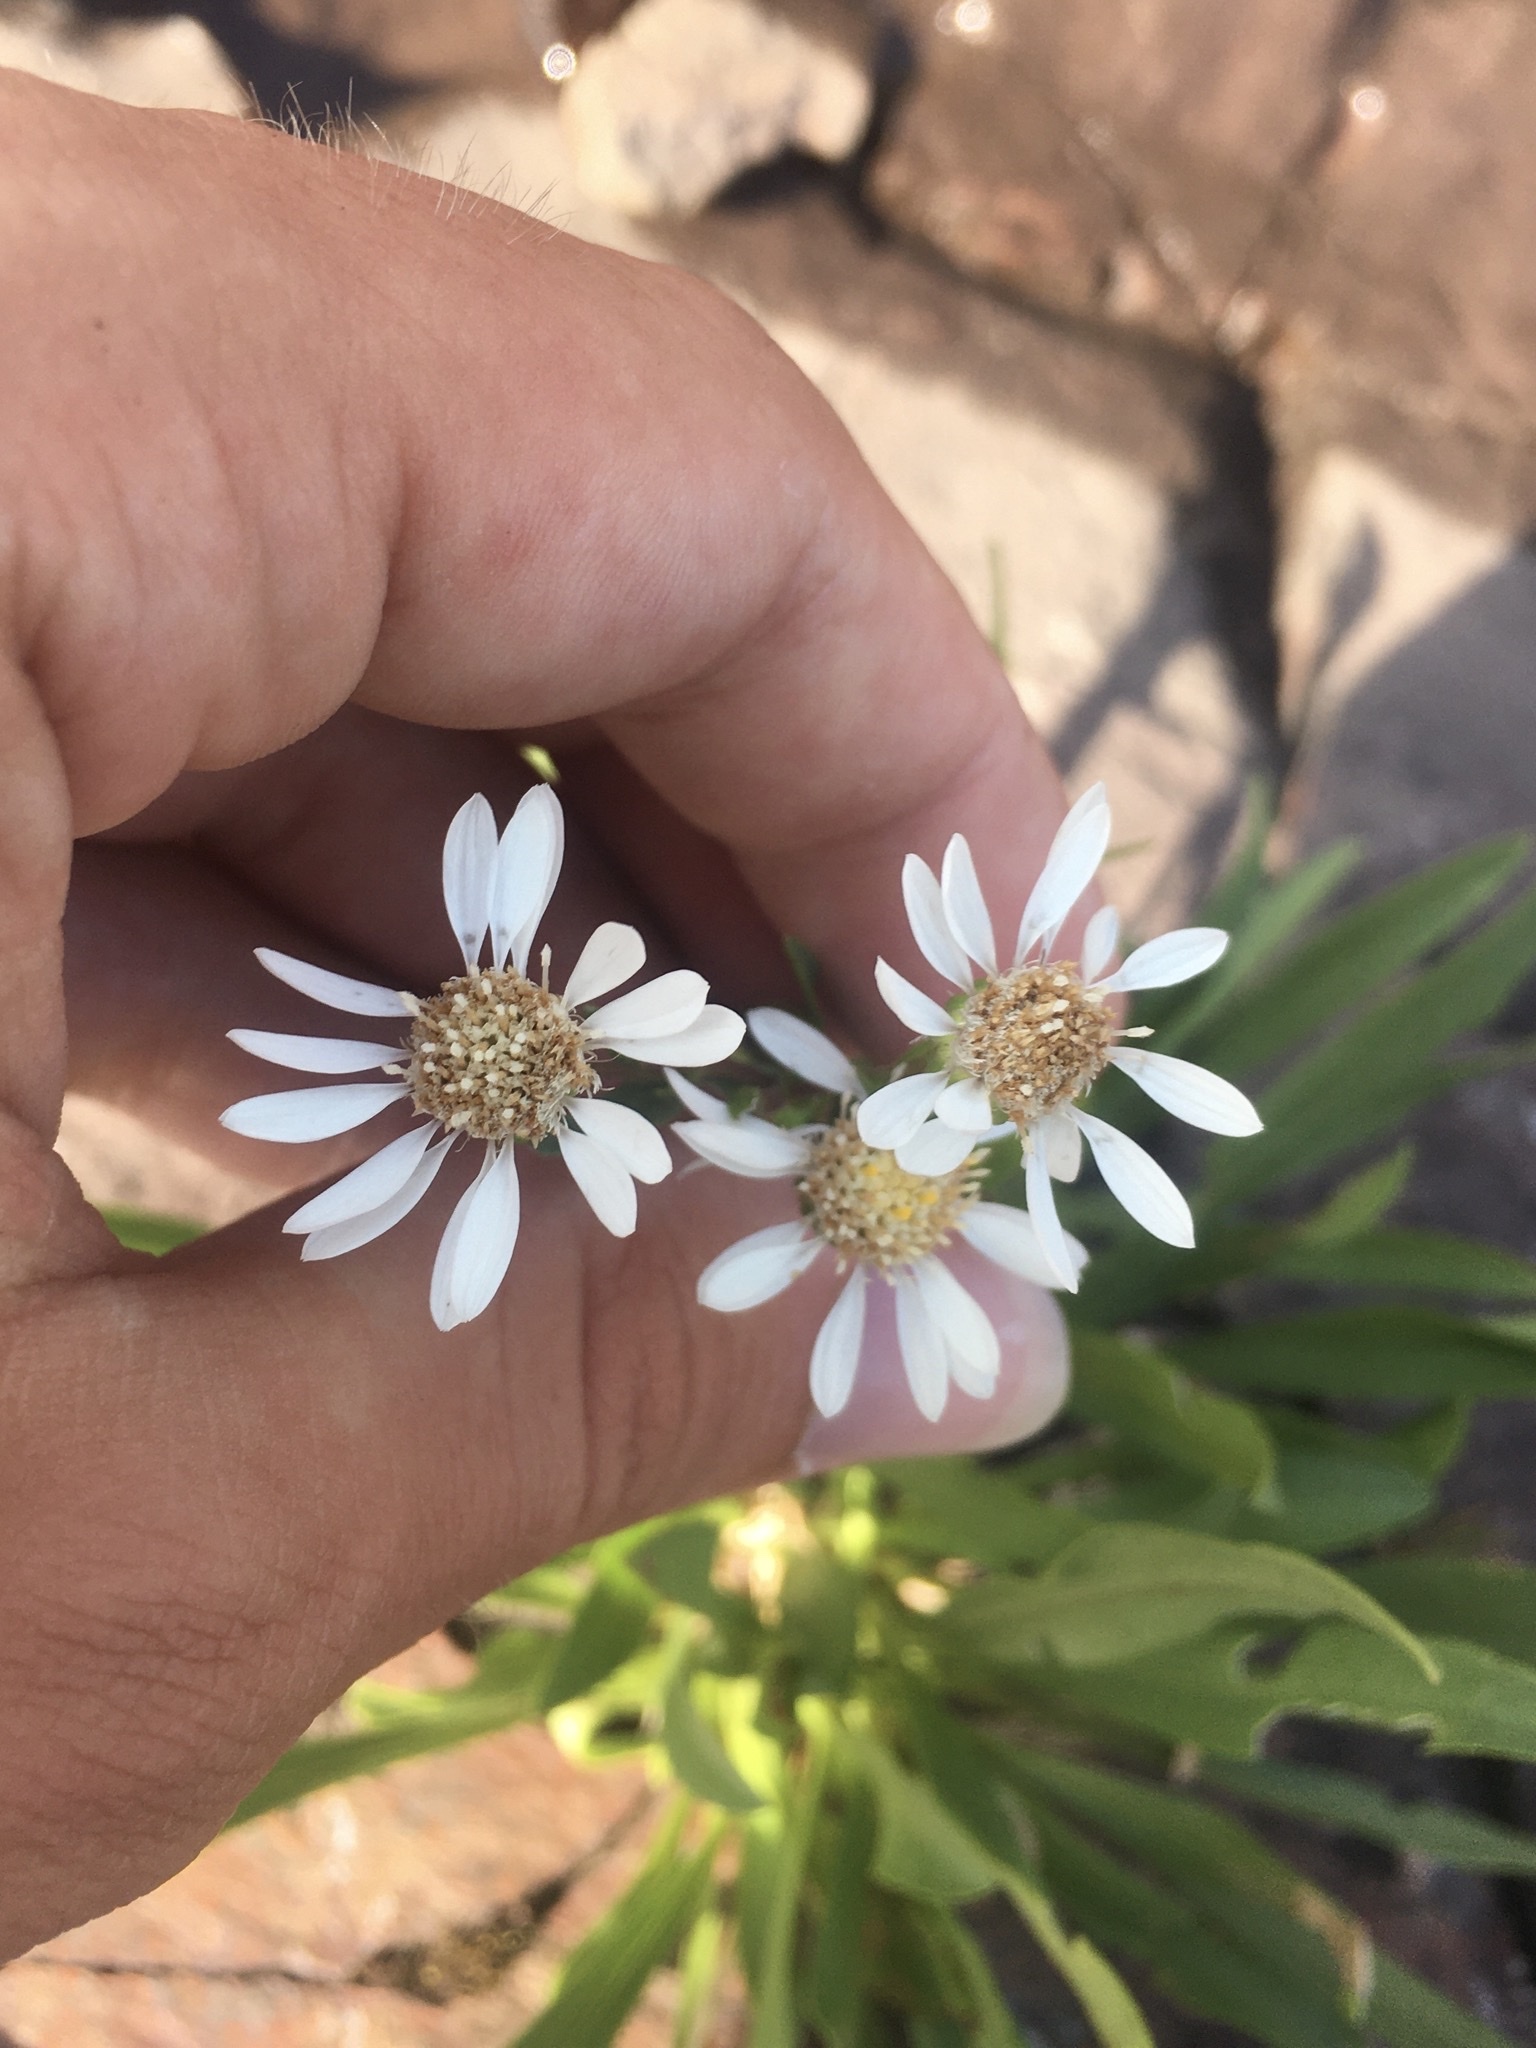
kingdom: Plantae
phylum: Tracheophyta
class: Magnoliopsida
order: Asterales
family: Asteraceae
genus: Solidago
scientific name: Solidago ptarmicoides
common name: White flat-top goldenrod
